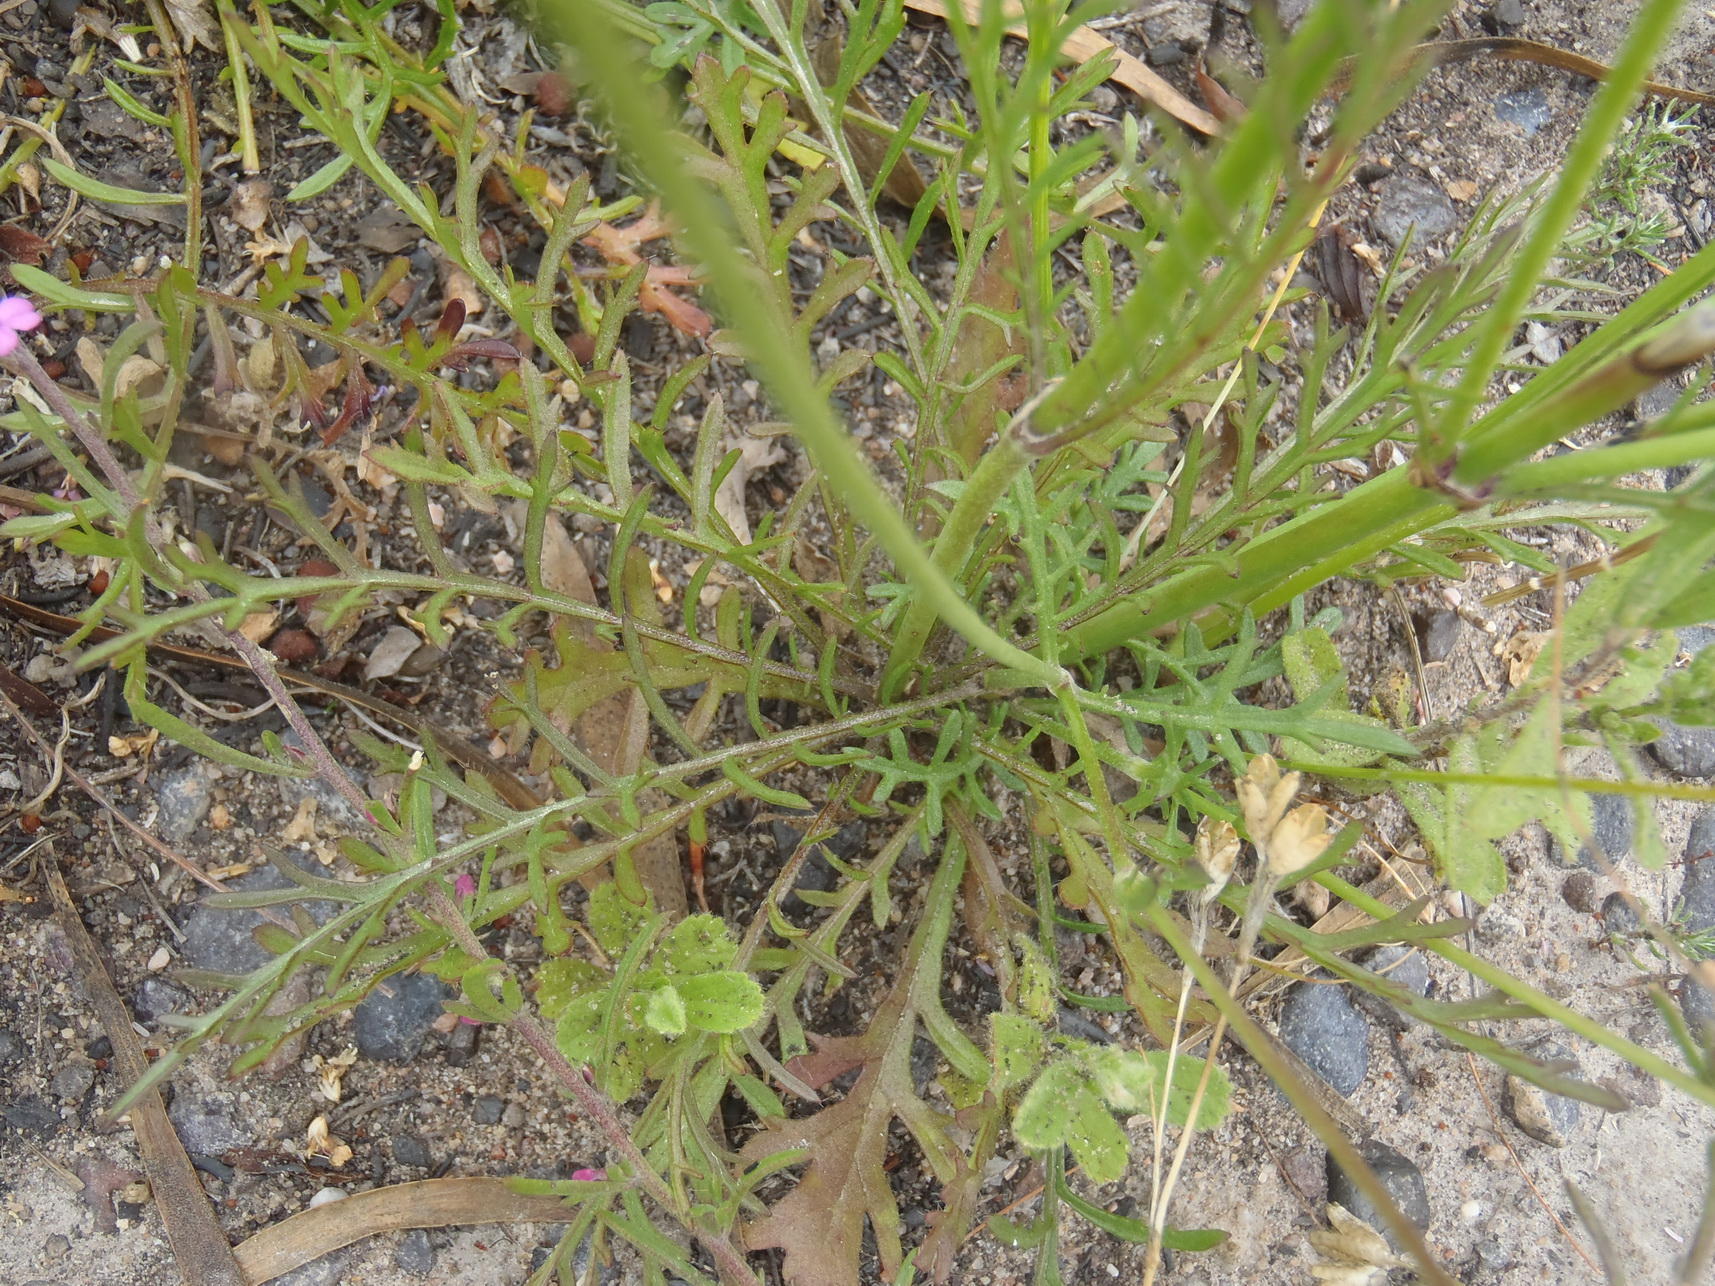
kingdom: Plantae
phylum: Tracheophyta
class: Magnoliopsida
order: Dipsacales
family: Caprifoliaceae
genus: Scabiosa
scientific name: Scabiosa columbaria
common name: Small scabious
